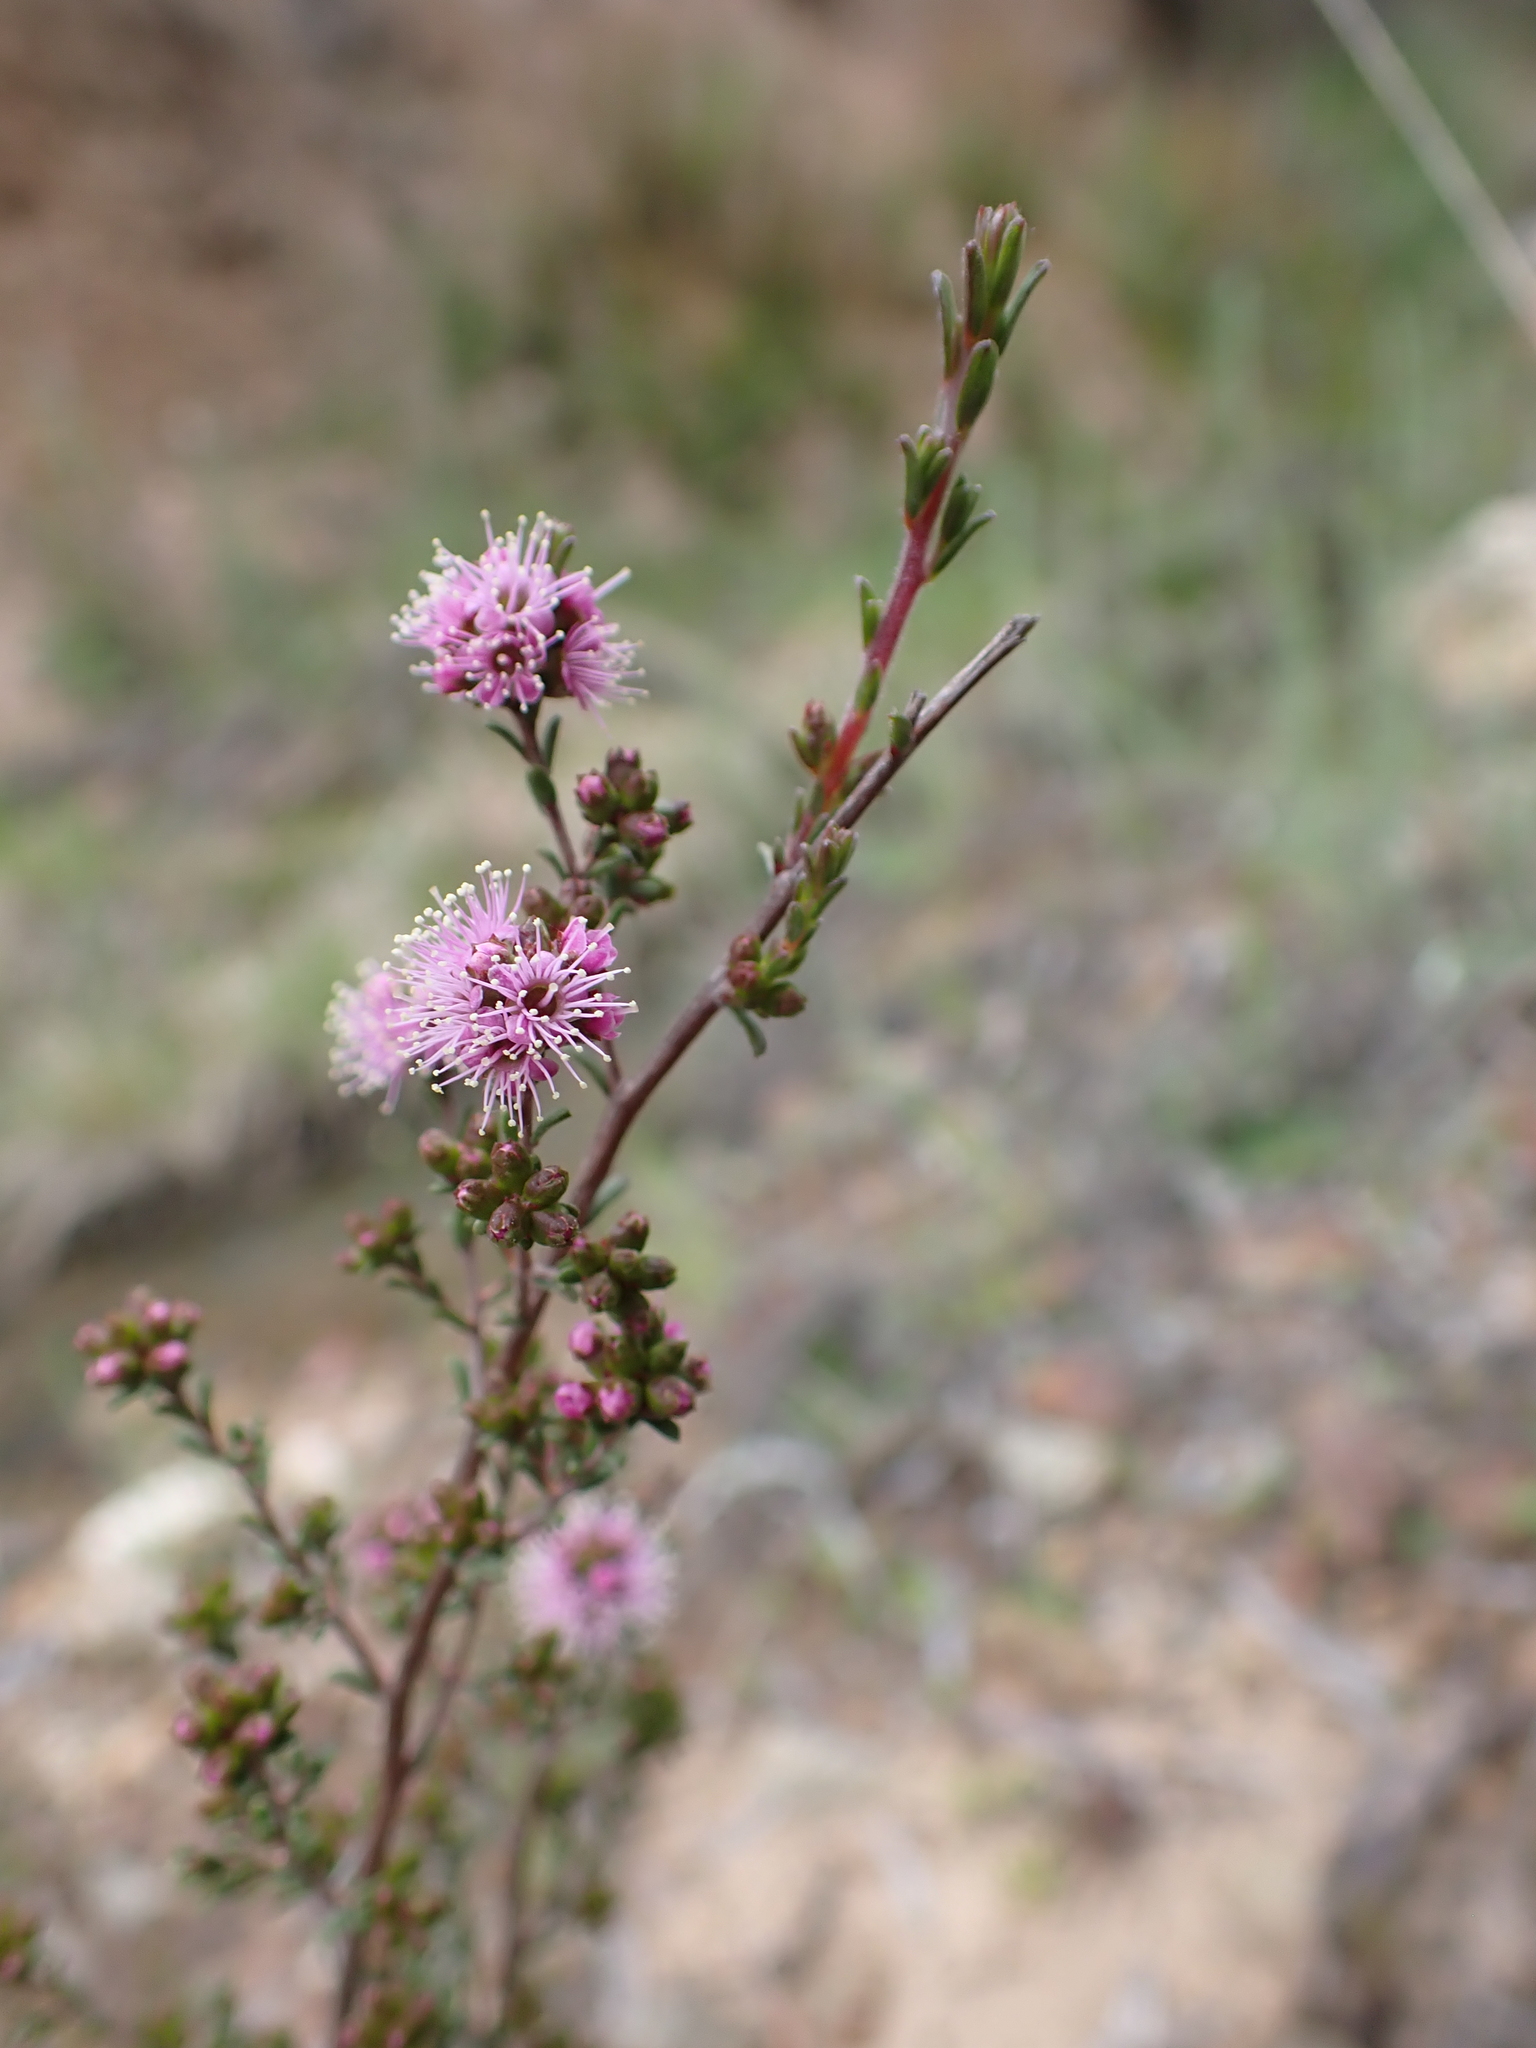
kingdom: Plantae
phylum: Tracheophyta
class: Magnoliopsida
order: Myrtales
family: Myrtaceae
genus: Kunzea
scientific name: Kunzea parvifolia
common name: Violet kunzea
